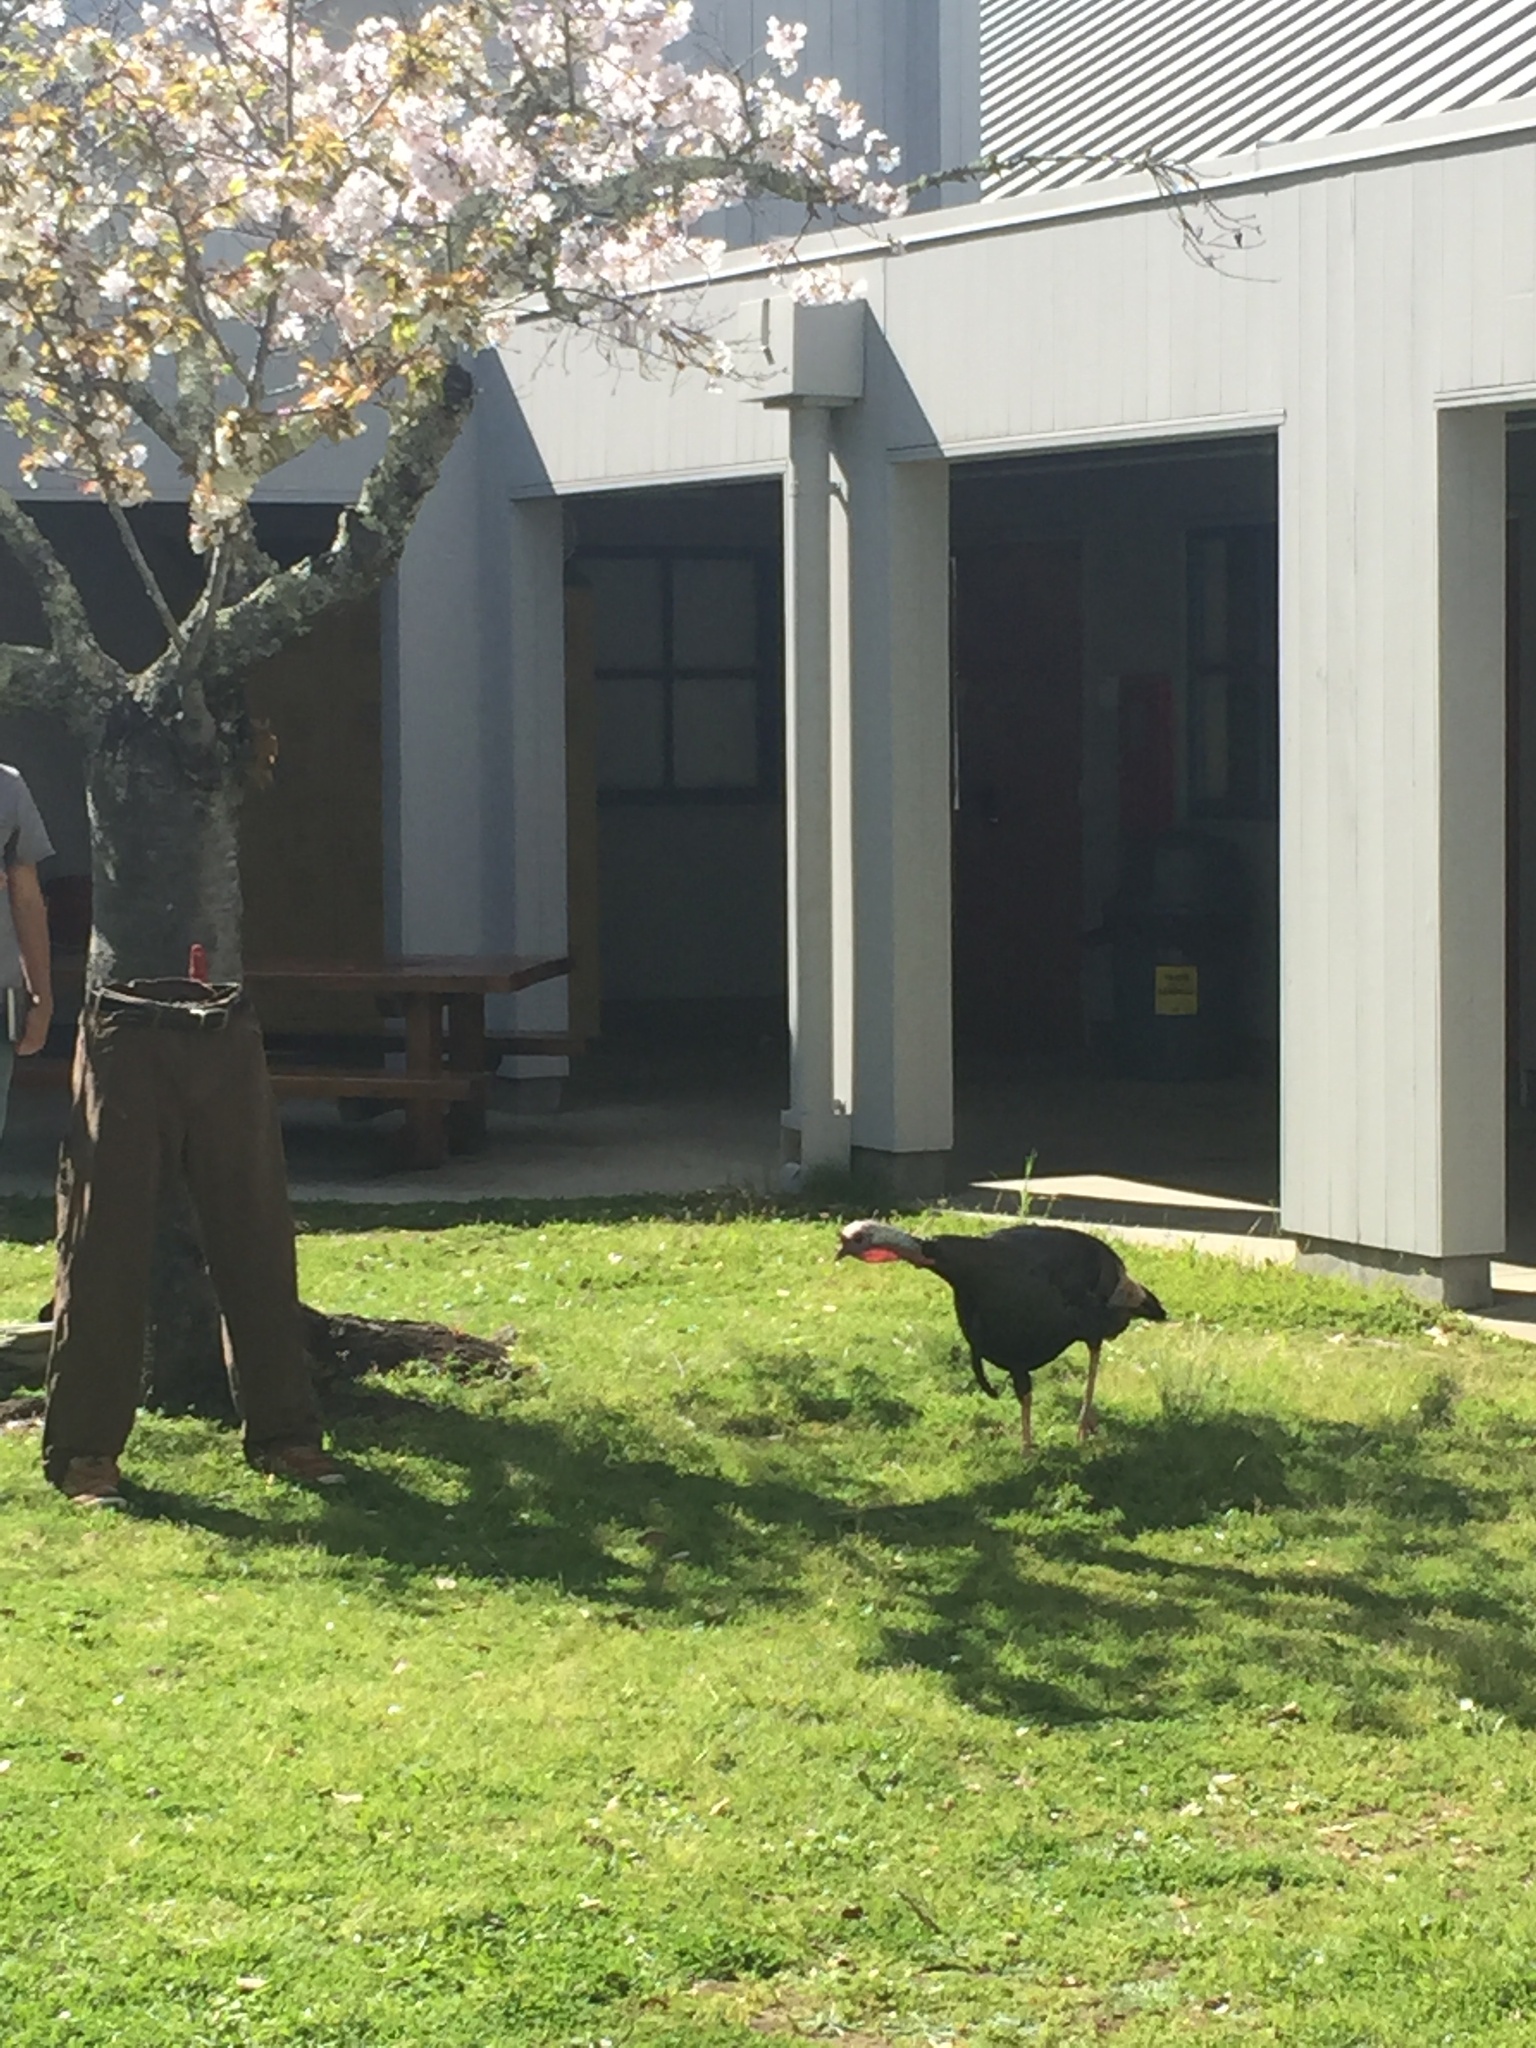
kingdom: Animalia
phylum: Chordata
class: Aves
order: Galliformes
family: Phasianidae
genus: Meleagris
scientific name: Meleagris gallopavo
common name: Wild turkey
